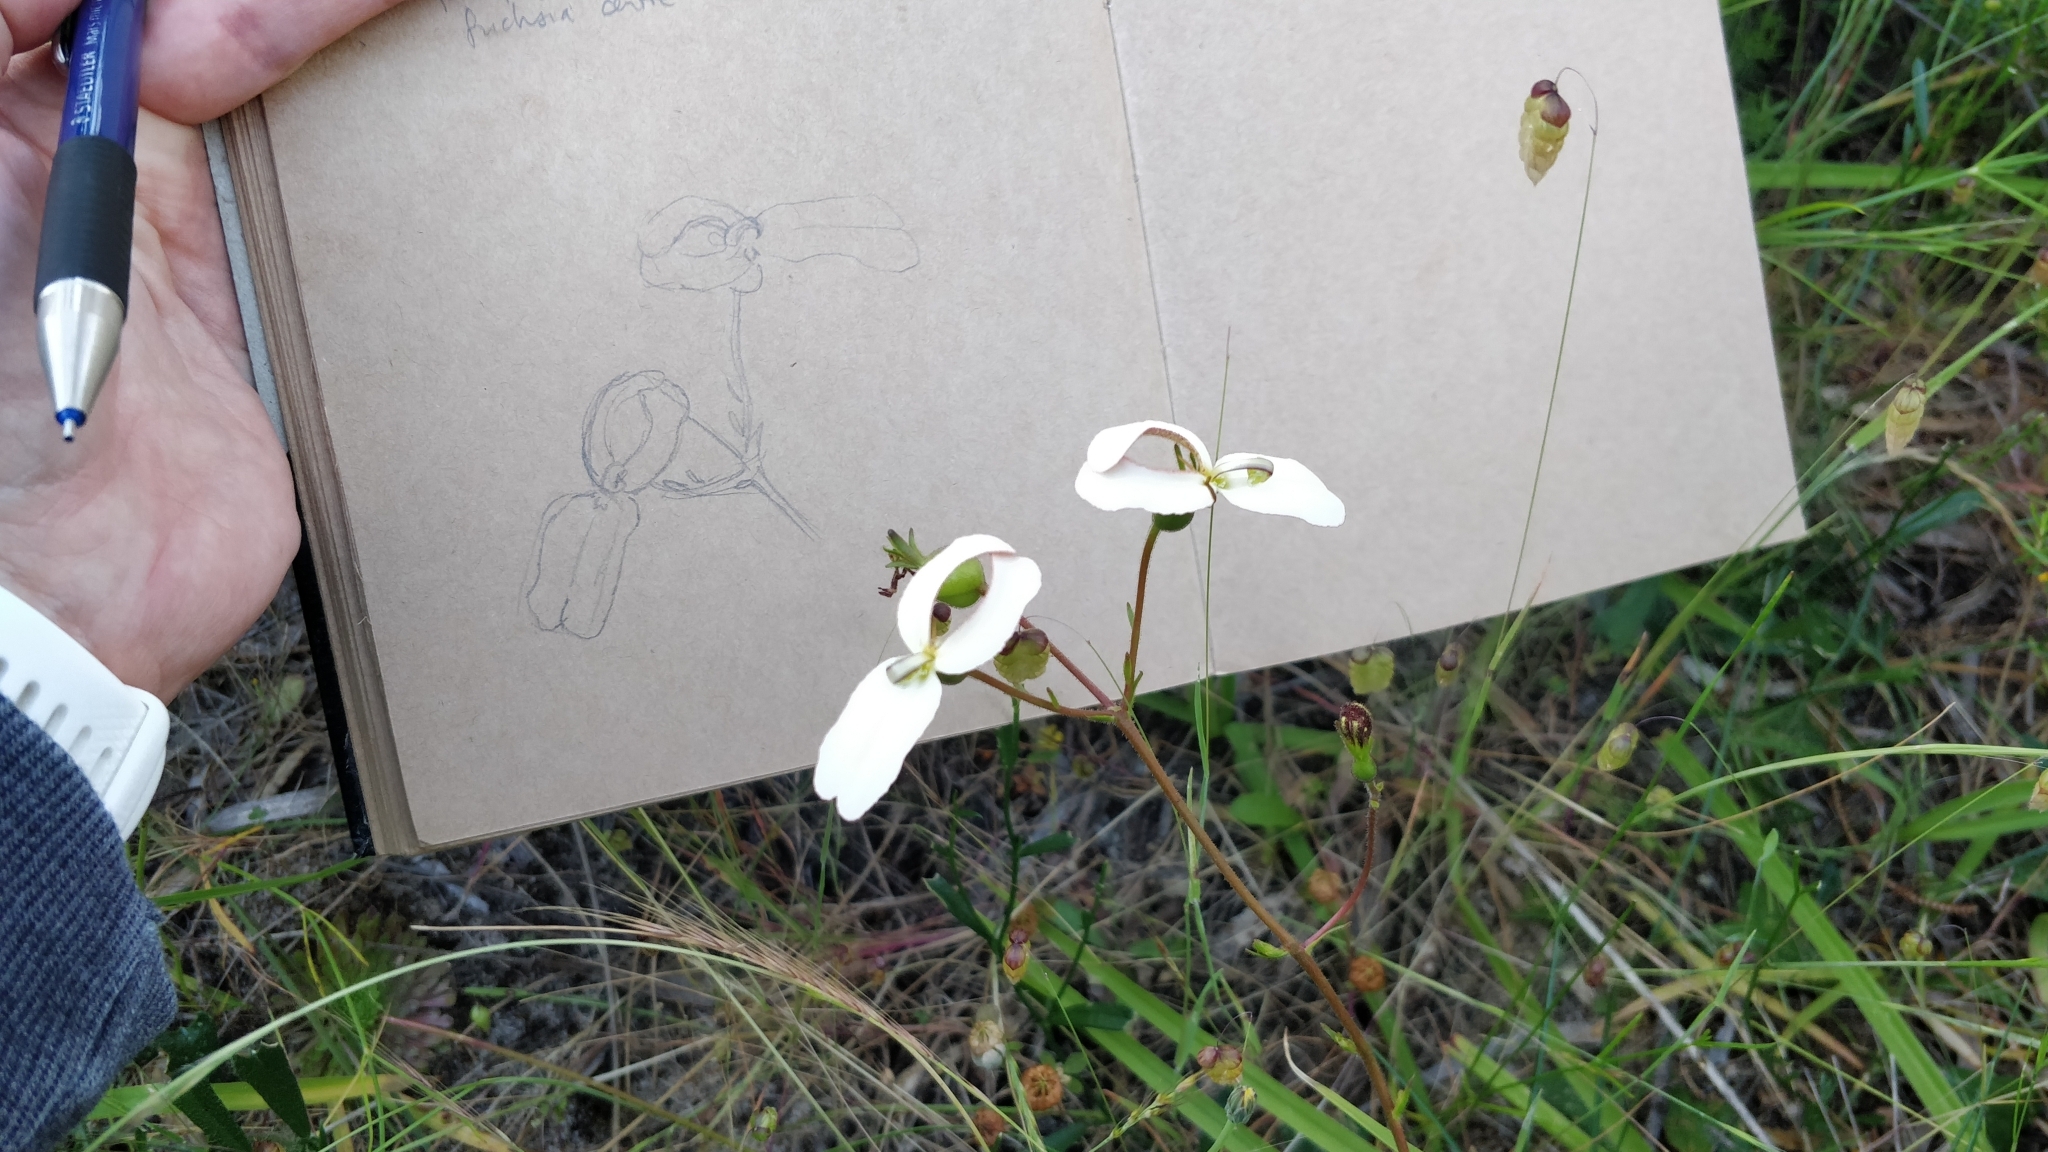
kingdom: Plantae
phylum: Tracheophyta
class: Magnoliopsida
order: Asterales
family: Stylidiaceae
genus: Stylidium
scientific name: Stylidium schoenoides
